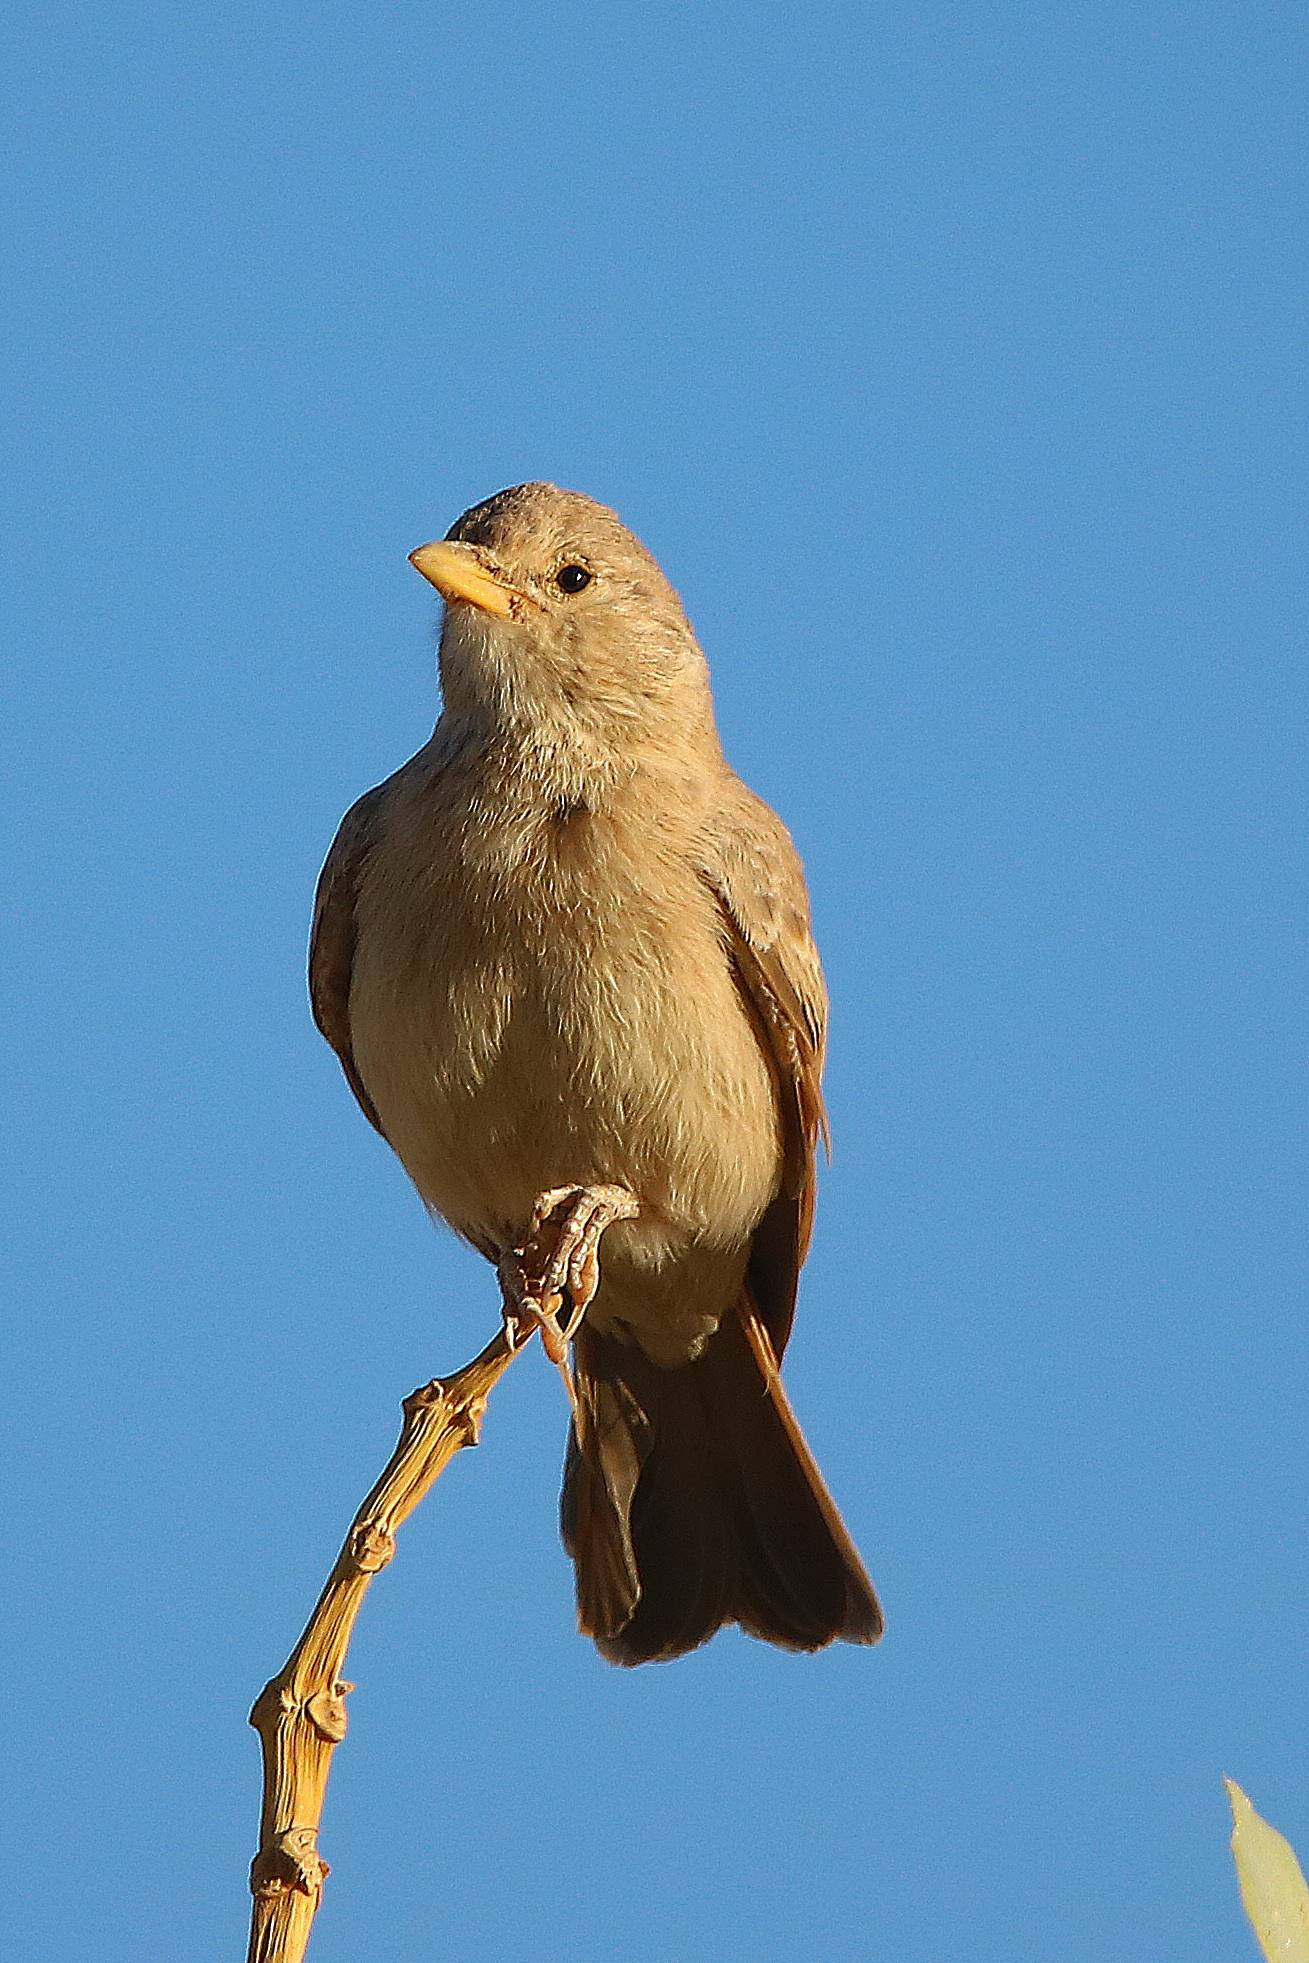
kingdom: Animalia
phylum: Chordata
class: Aves
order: Passeriformes
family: Alaudidae
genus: Ammomanes
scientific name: Ammomanes deserti
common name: Desert lark
